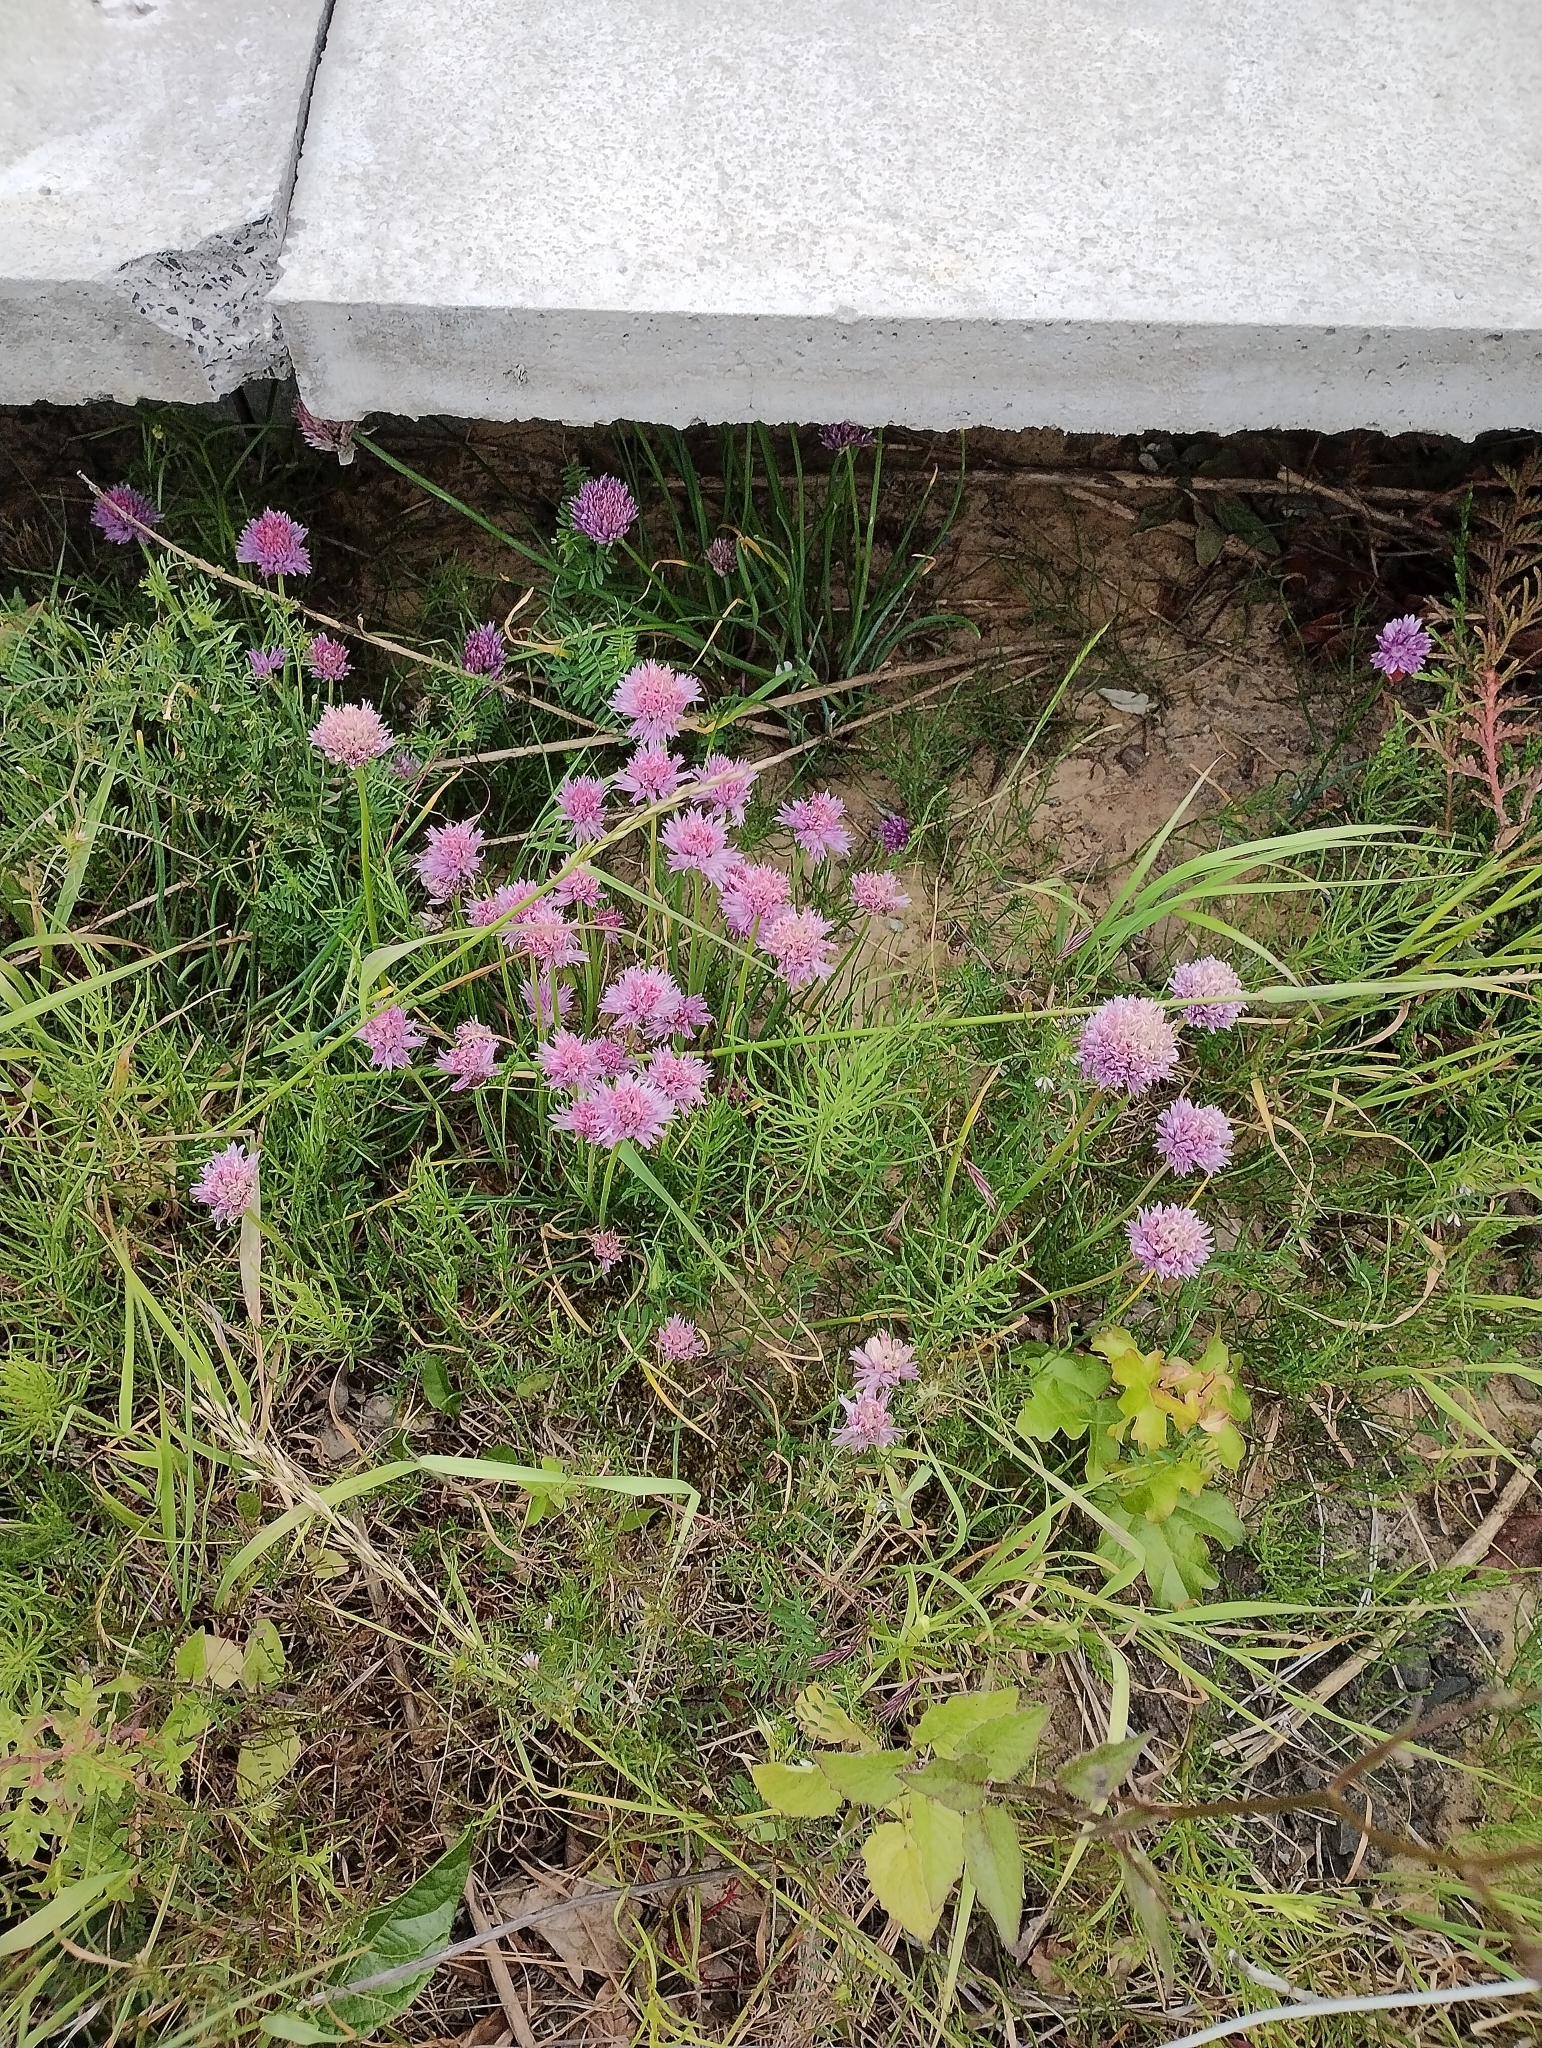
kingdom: Plantae
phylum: Tracheophyta
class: Liliopsida
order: Asparagales
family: Amaryllidaceae
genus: Allium
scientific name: Allium schoenoprasum
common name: Chives
